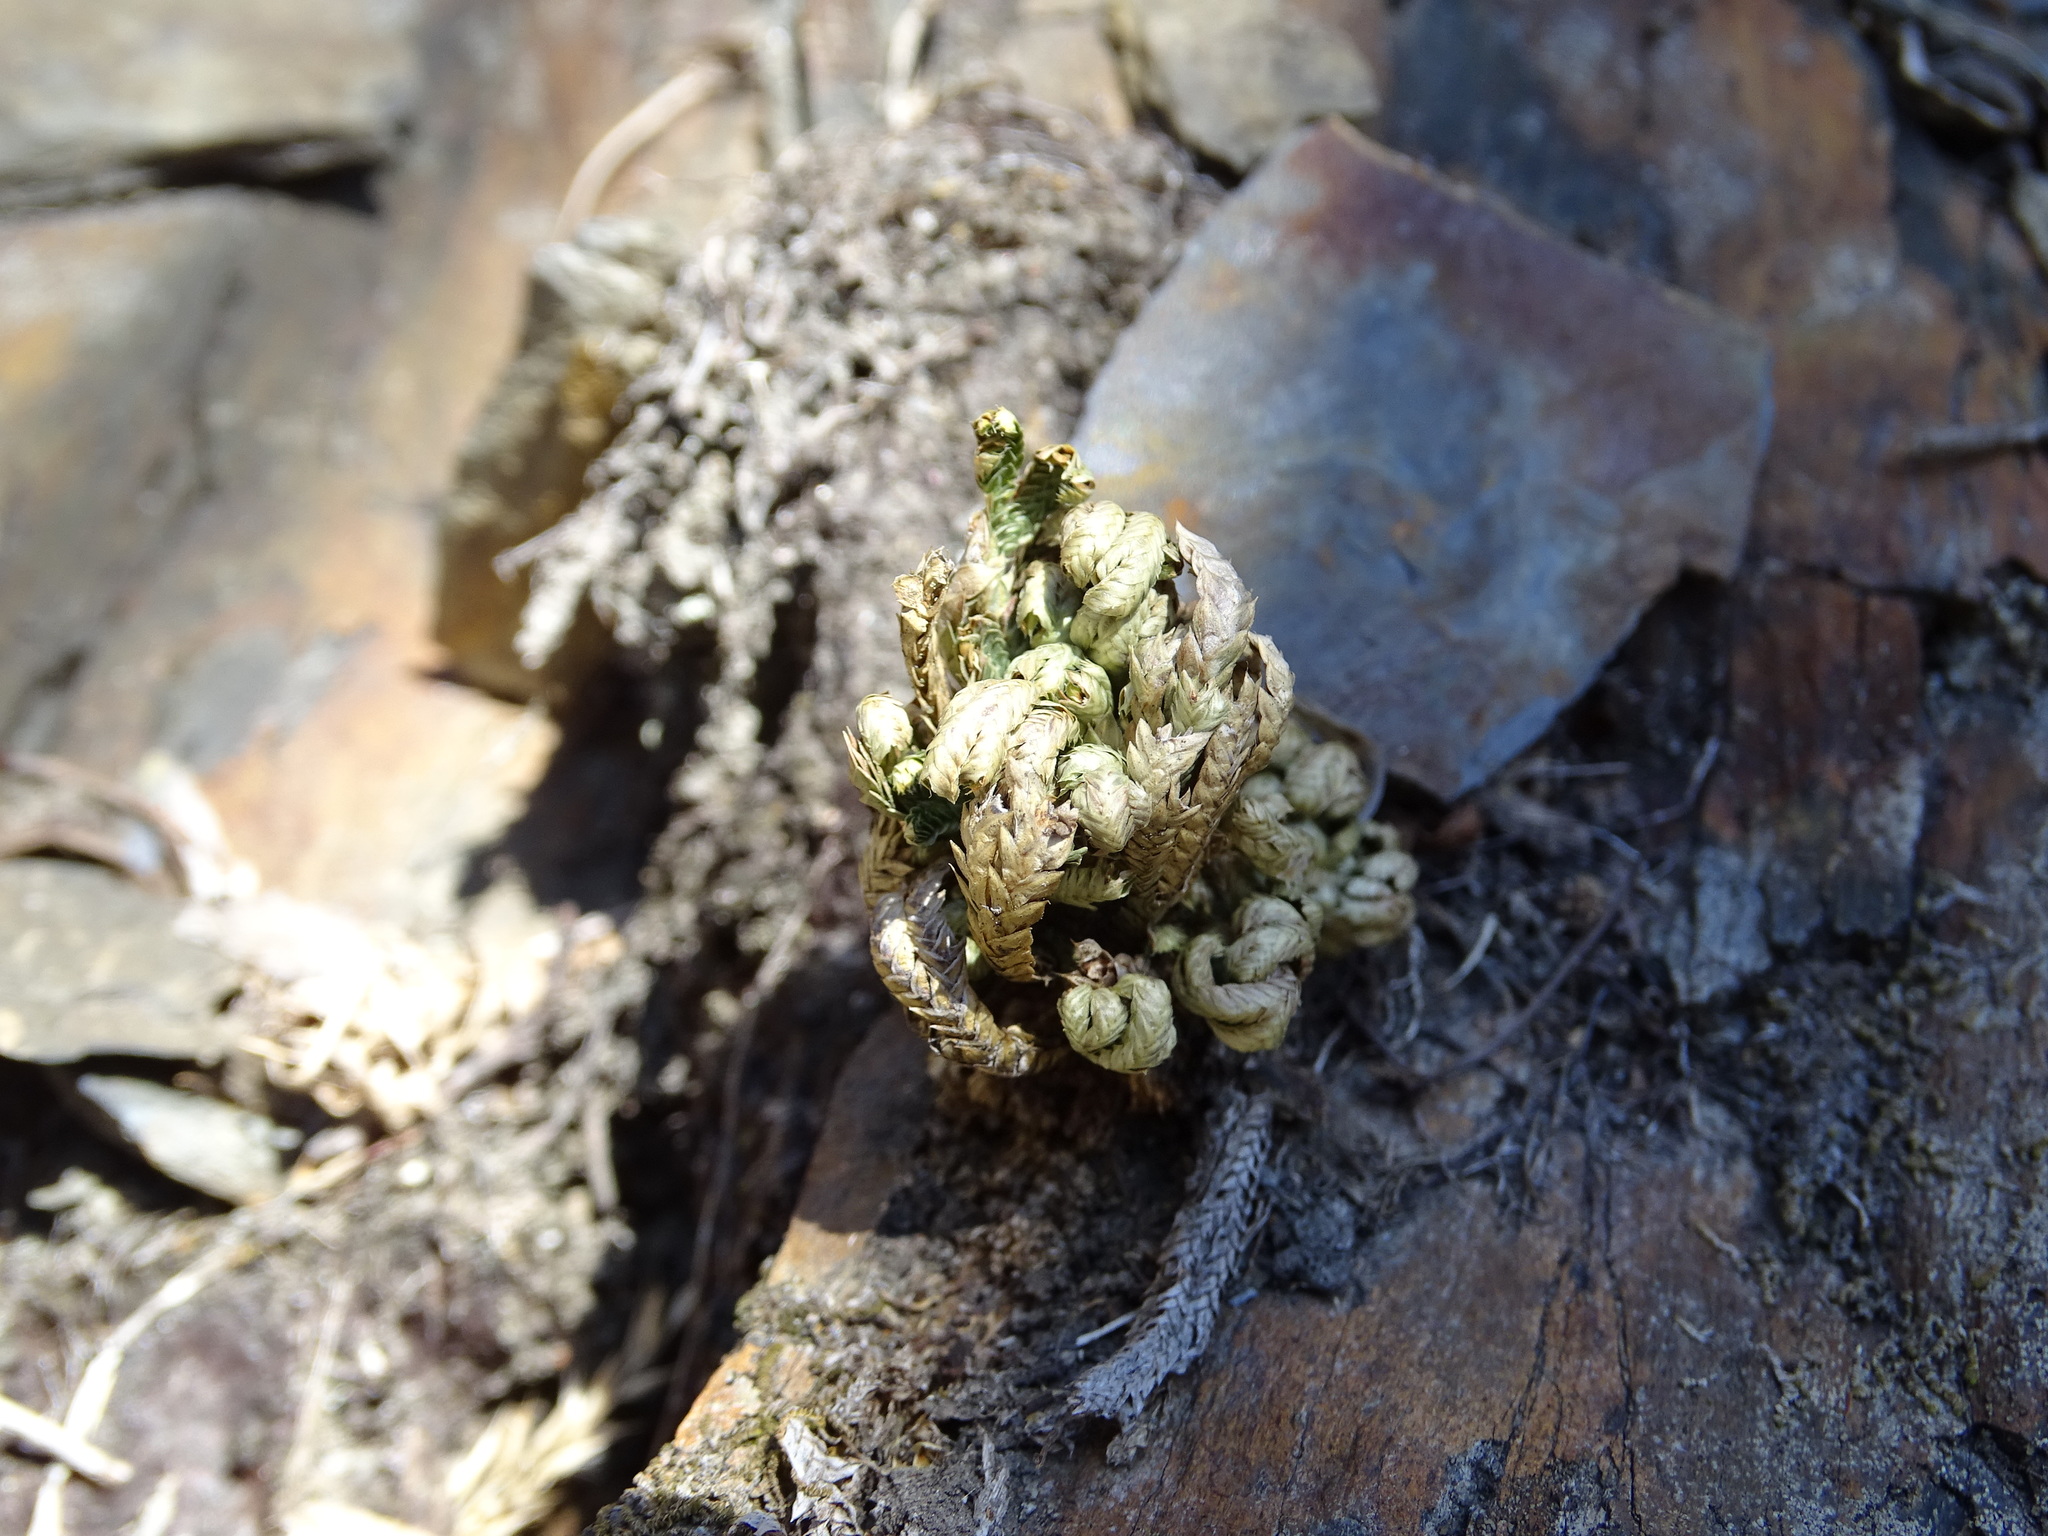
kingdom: Plantae
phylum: Tracheophyta
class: Lycopodiopsida
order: Selaginellales
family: Selaginellaceae
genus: Selaginella
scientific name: Selaginella tamariscina
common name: Little-club-moss
